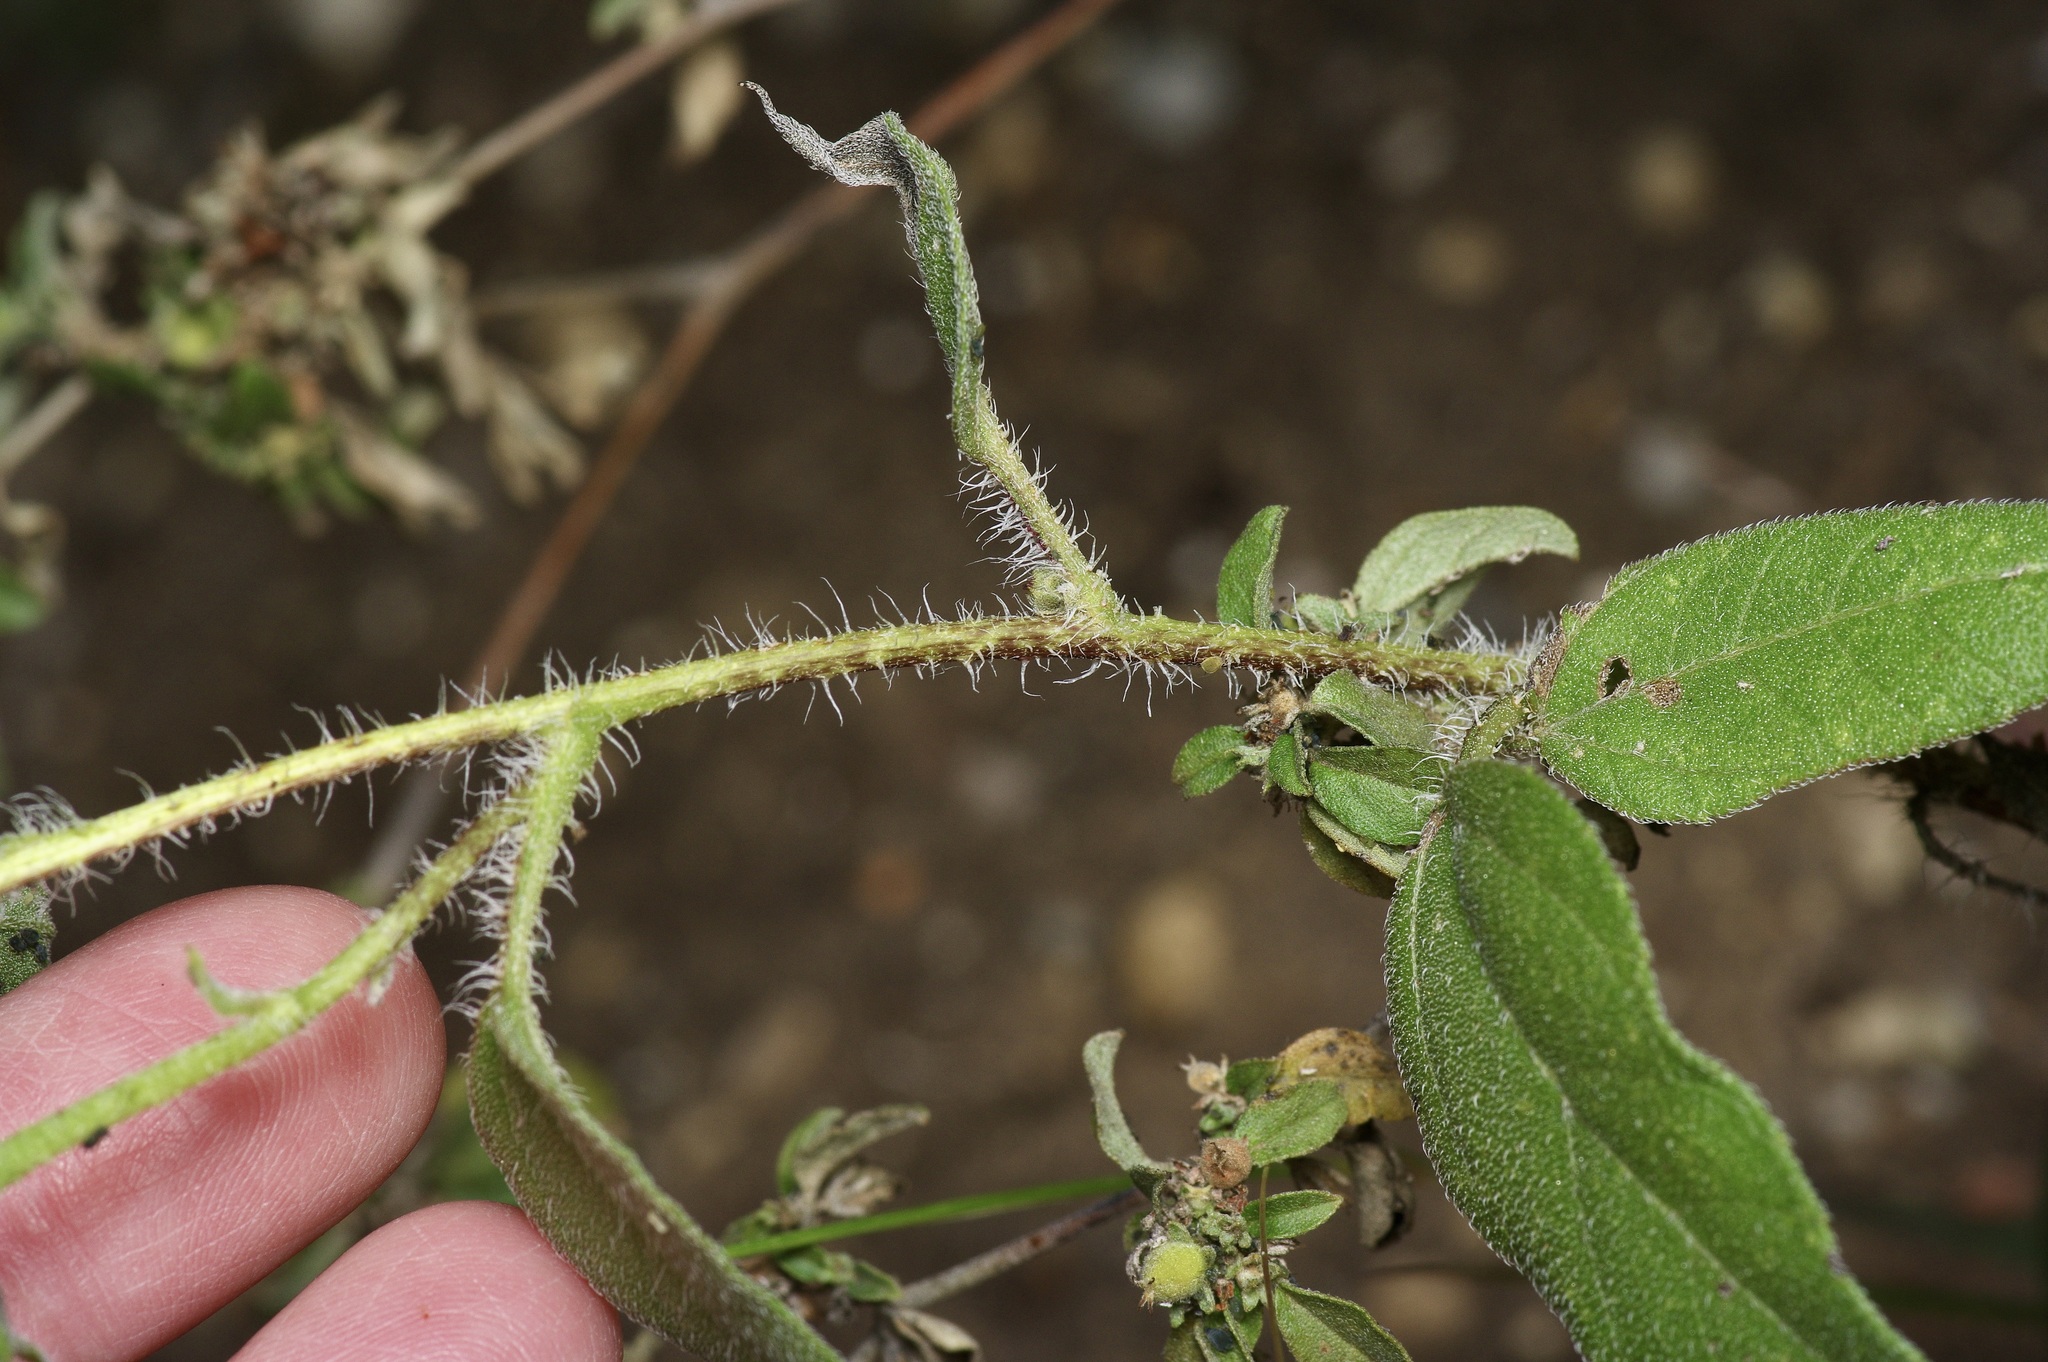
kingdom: Plantae
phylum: Tracheophyta
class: Magnoliopsida
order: Asterales
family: Asteraceae
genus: Helianthus
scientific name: Helianthus annuus
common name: Sunflower
